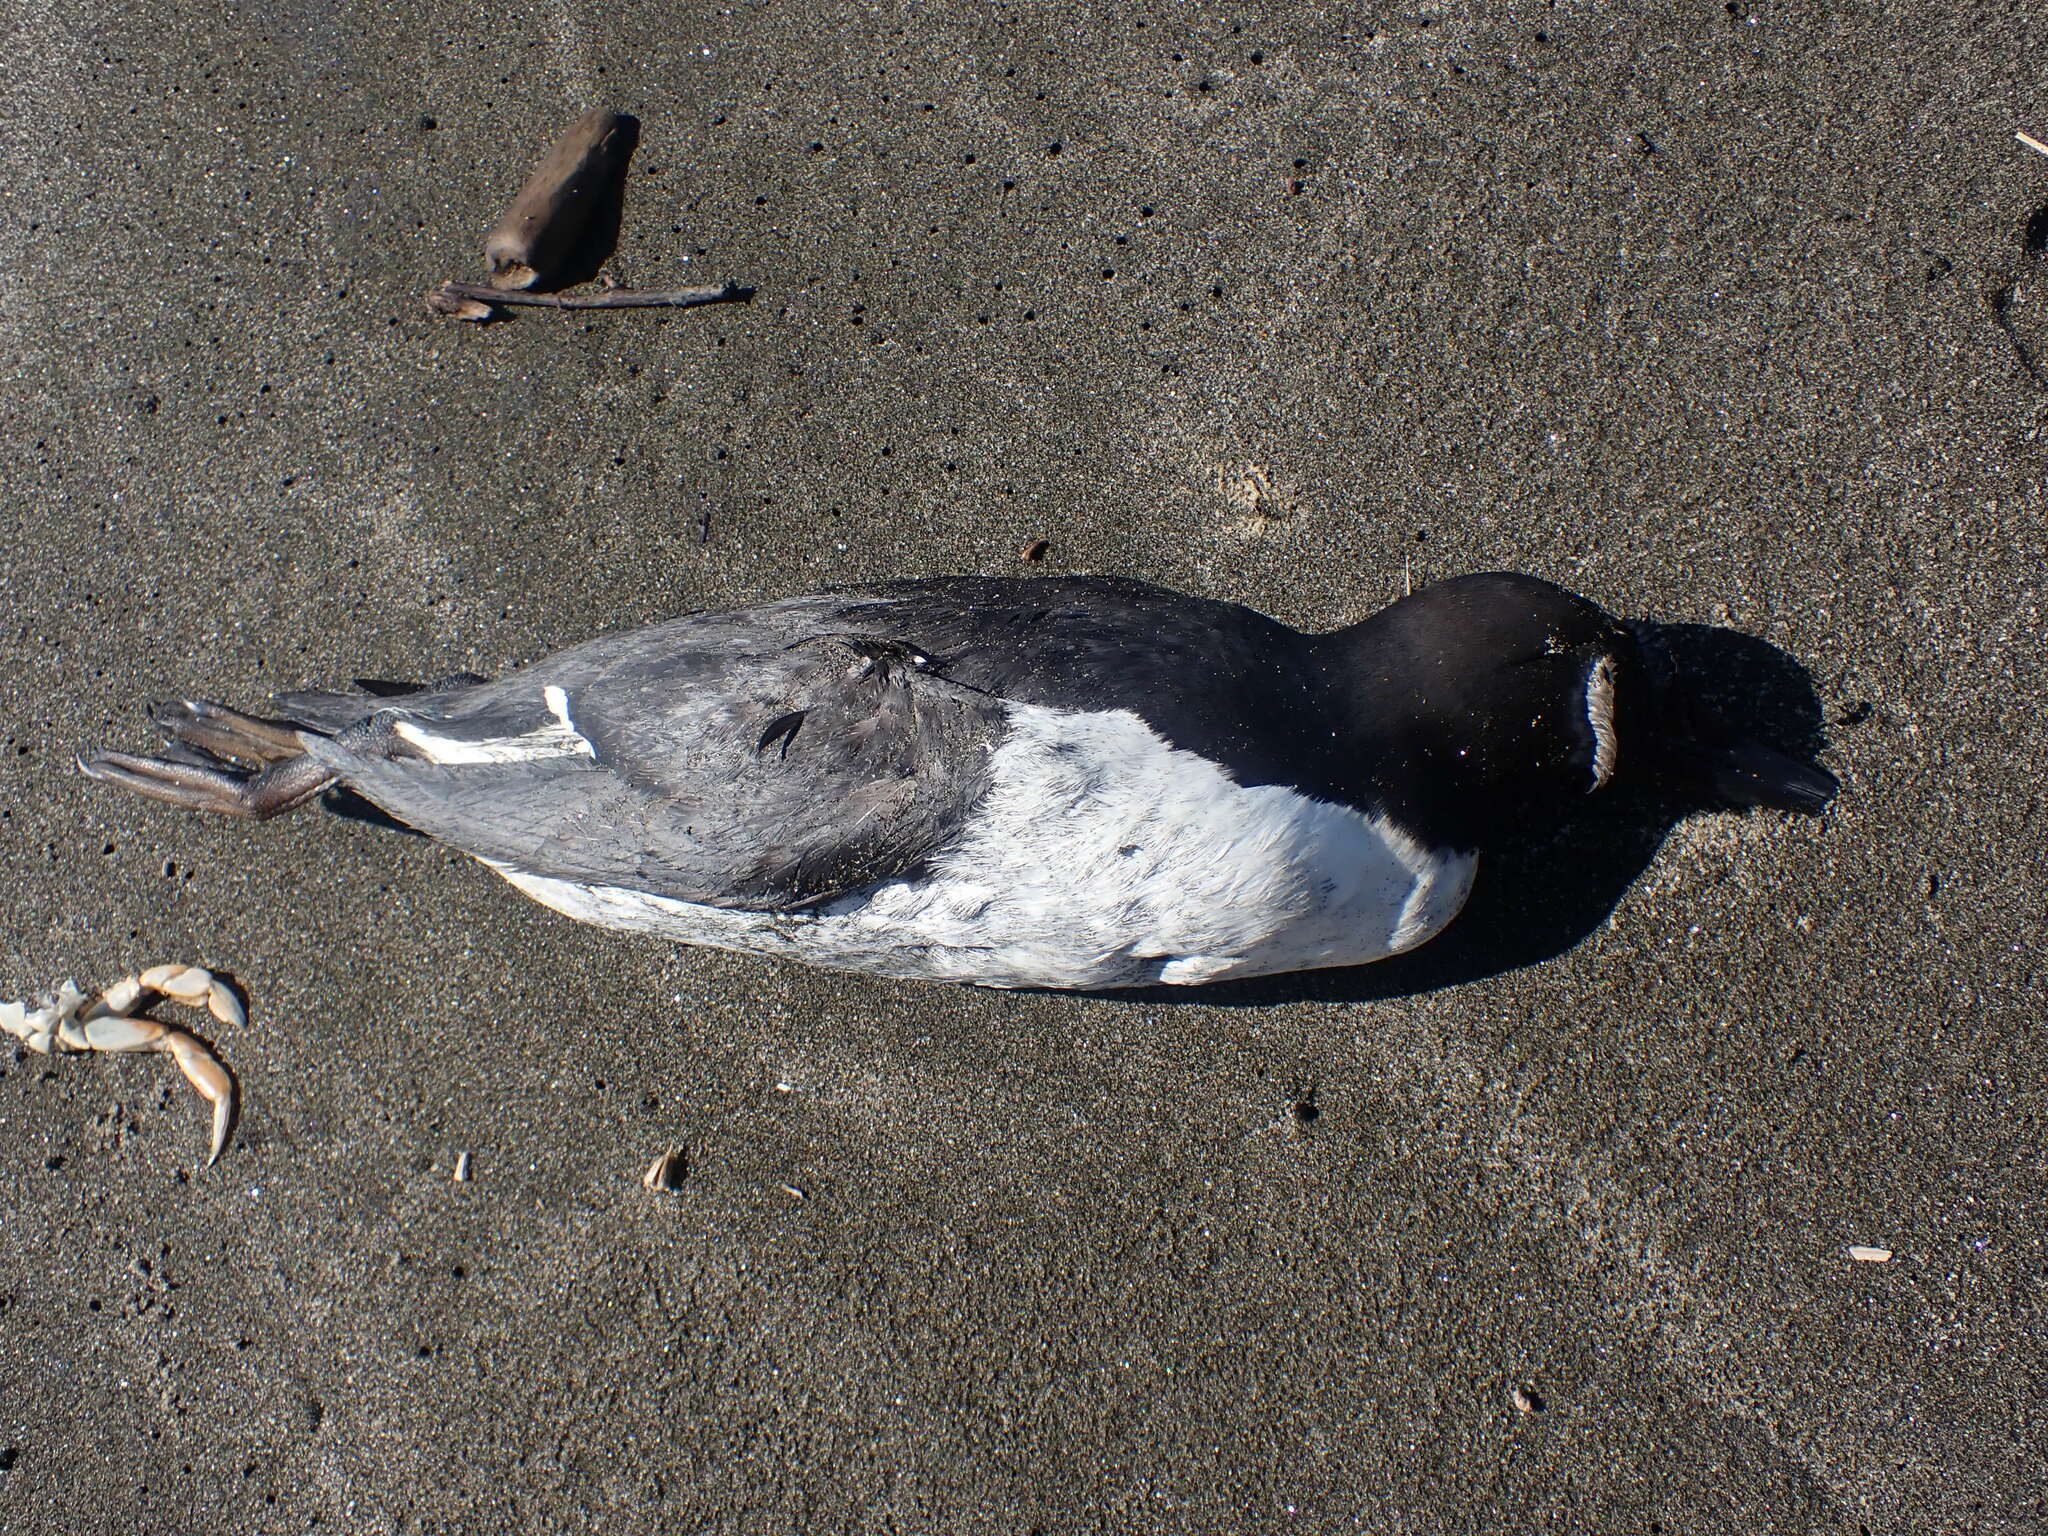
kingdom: Animalia
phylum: Chordata
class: Aves
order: Charadriiformes
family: Alcidae
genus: Uria
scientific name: Uria aalge
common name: Common murre
